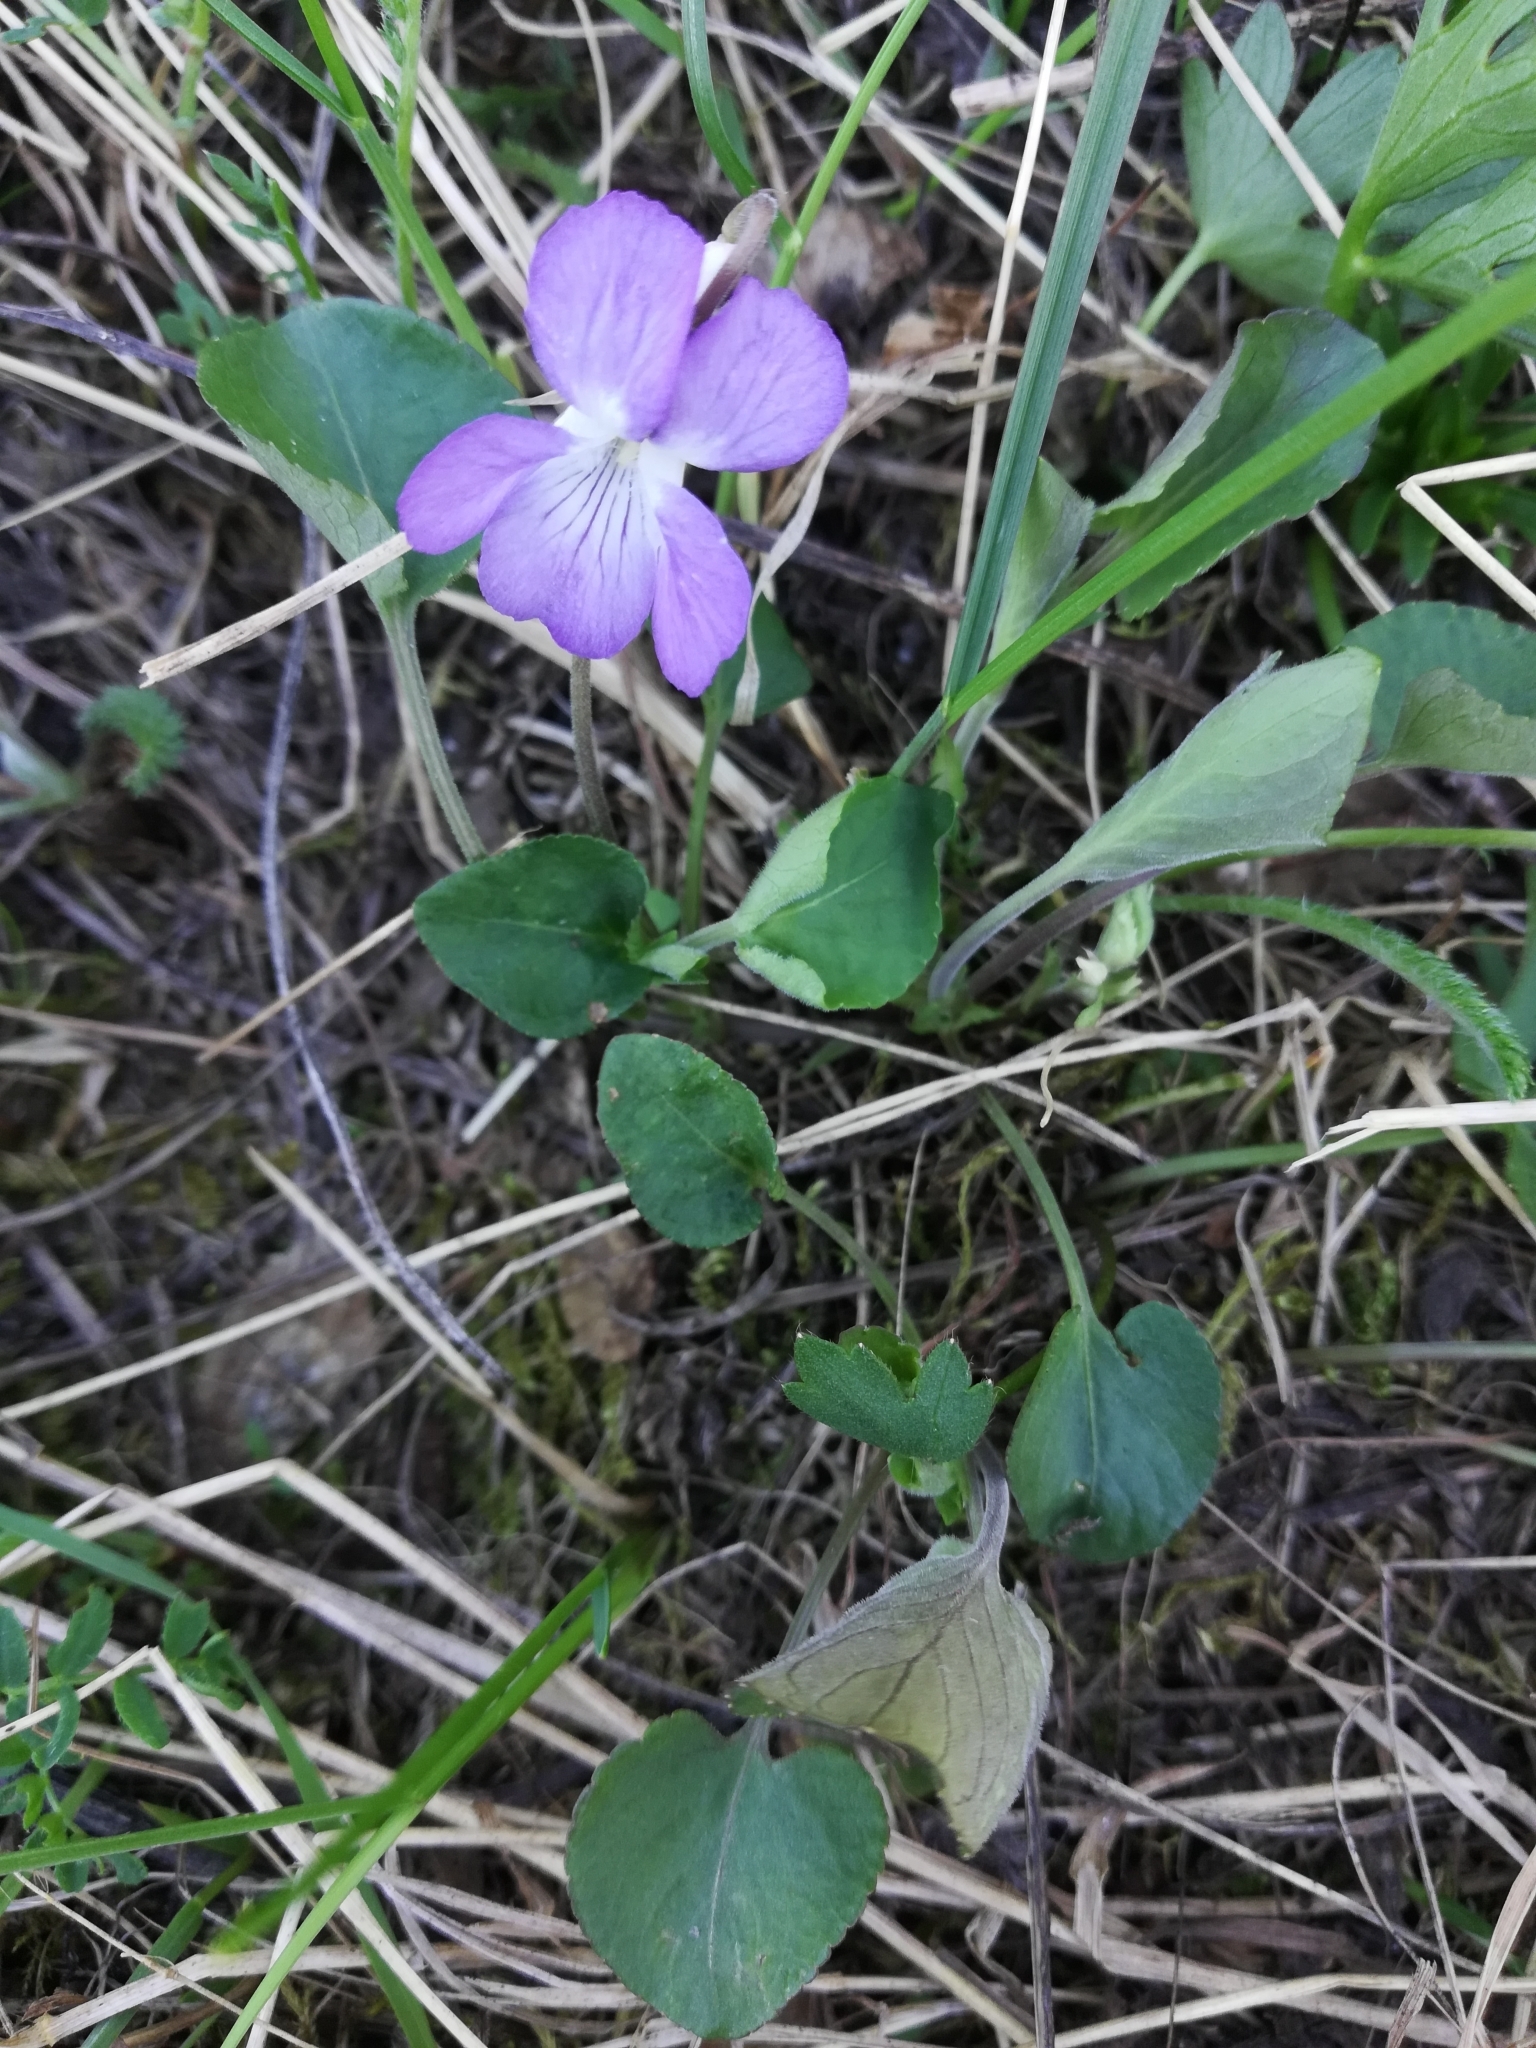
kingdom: Plantae
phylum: Tracheophyta
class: Magnoliopsida
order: Malpighiales
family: Violaceae
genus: Viola
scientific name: Viola rupestris
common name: Teesdale violet
